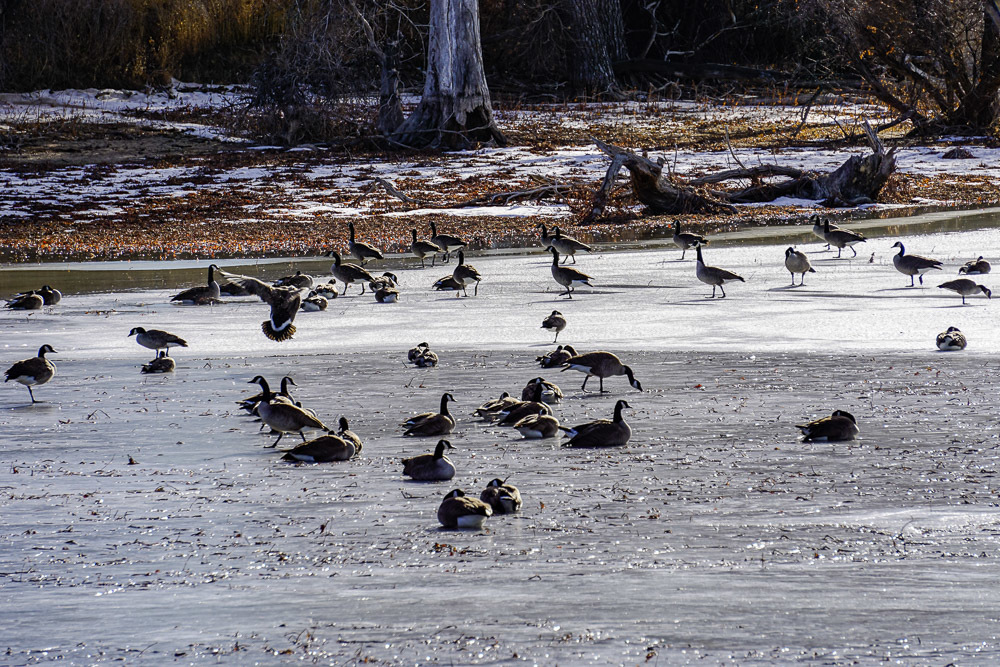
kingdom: Animalia
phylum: Chordata
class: Aves
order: Anseriformes
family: Anatidae
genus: Branta
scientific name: Branta canadensis
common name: Canada goose
